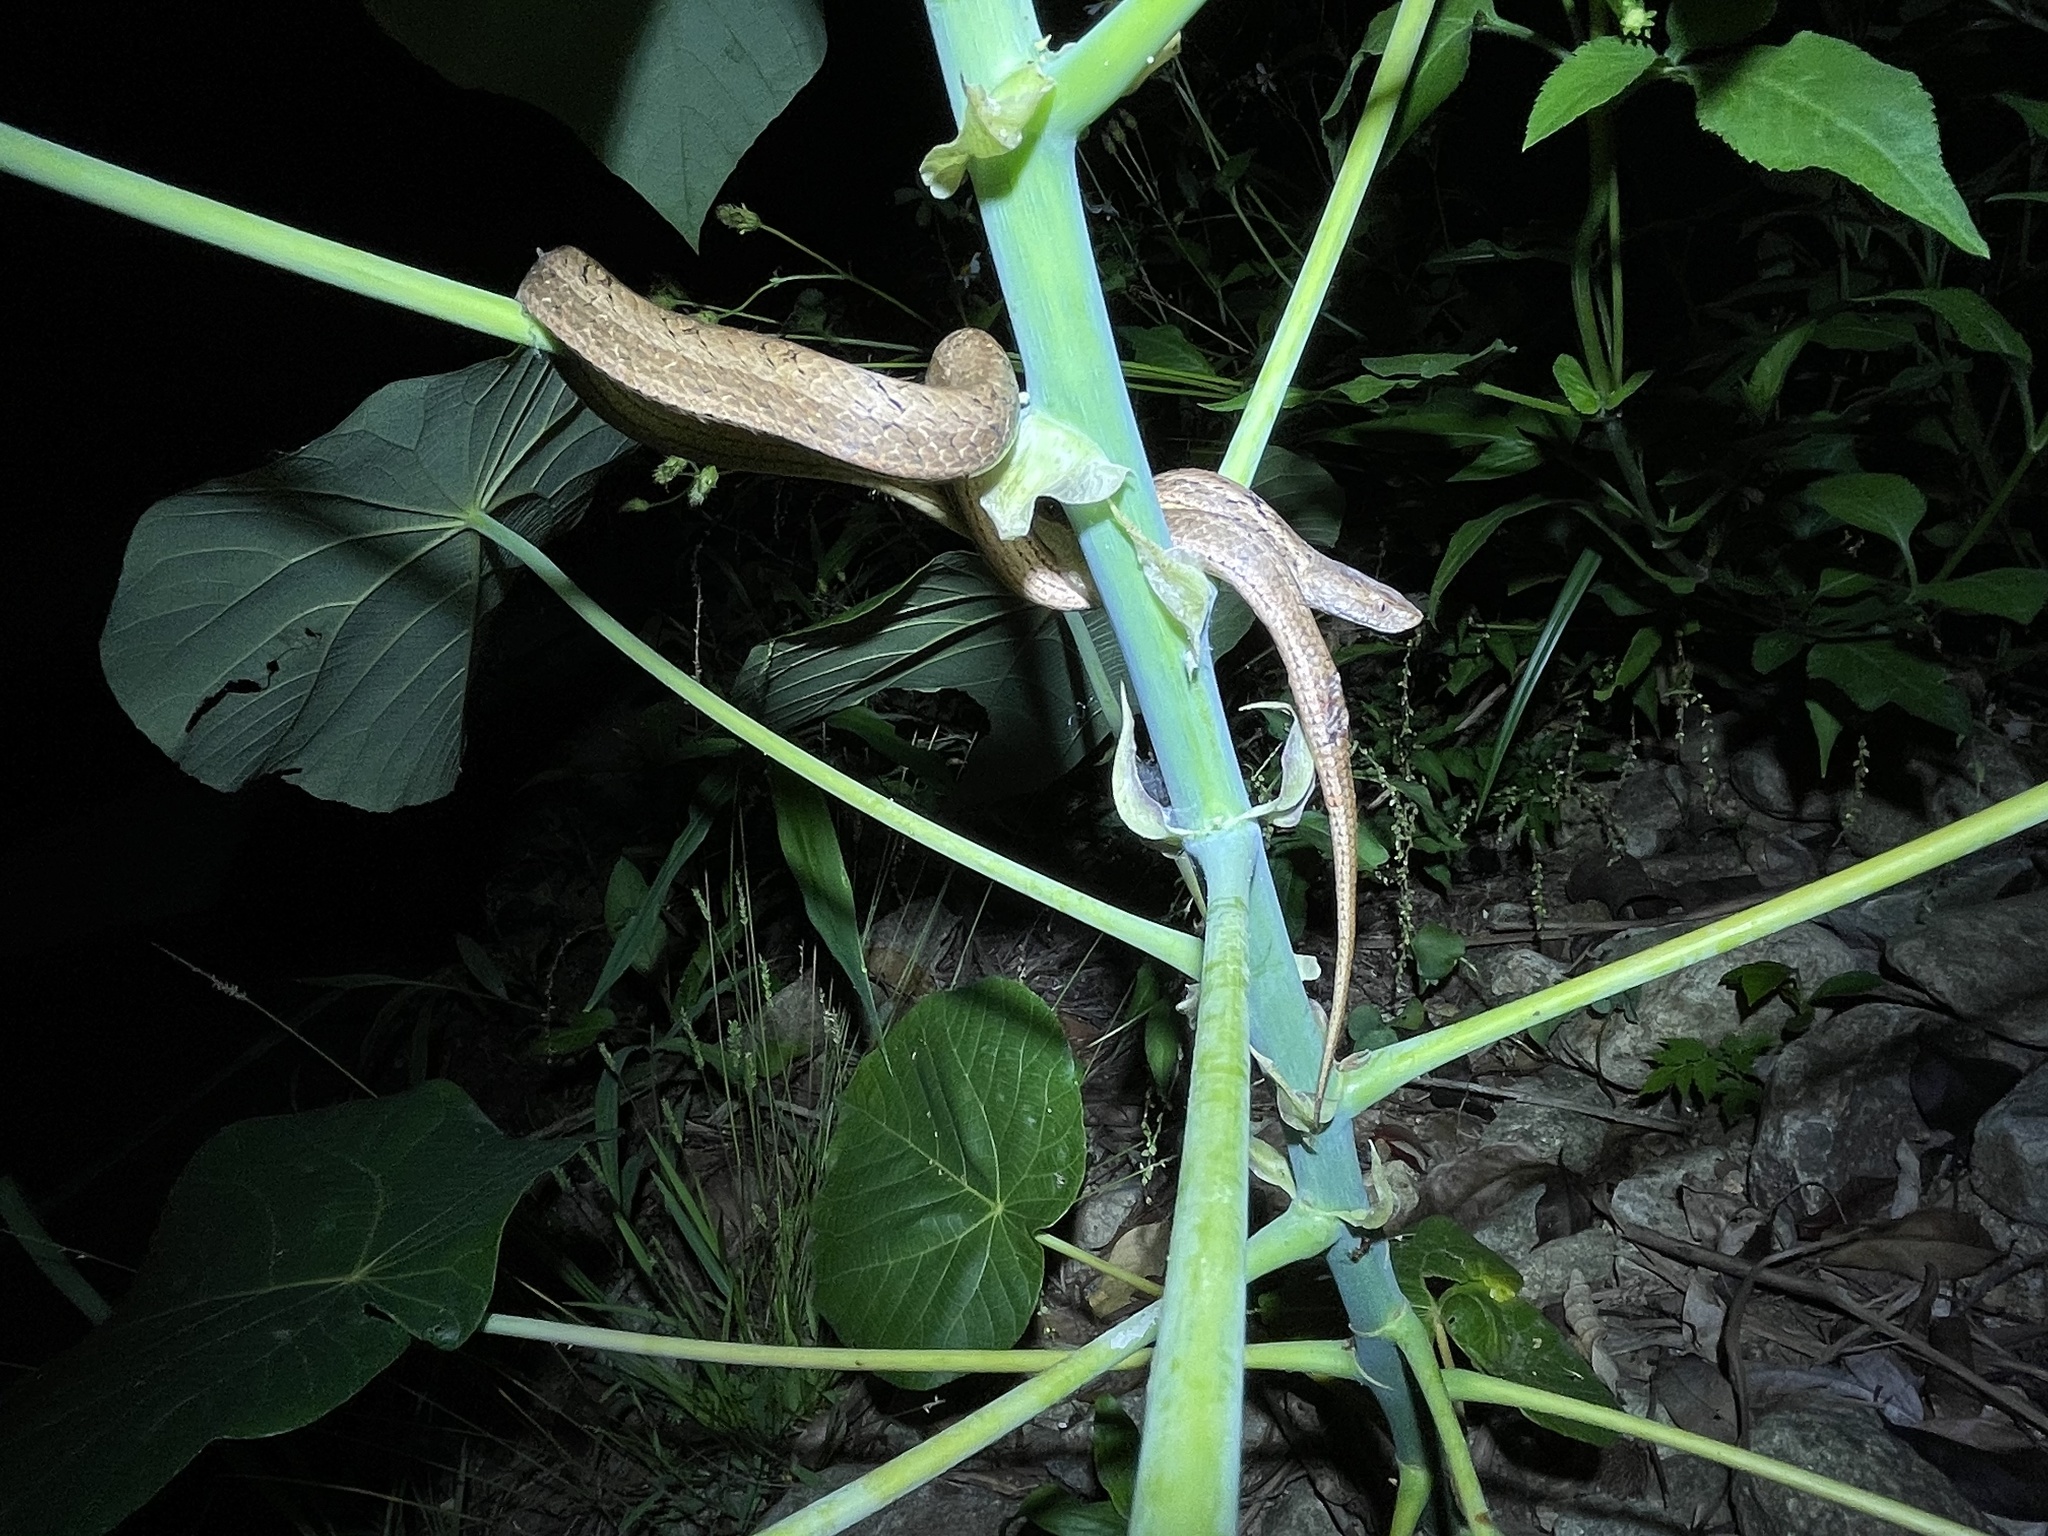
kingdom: Animalia
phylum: Chordata
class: Squamata
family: Pseudaspididae
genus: Psammodynastes
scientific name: Psammodynastes pulverulentus
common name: Common mock viper
